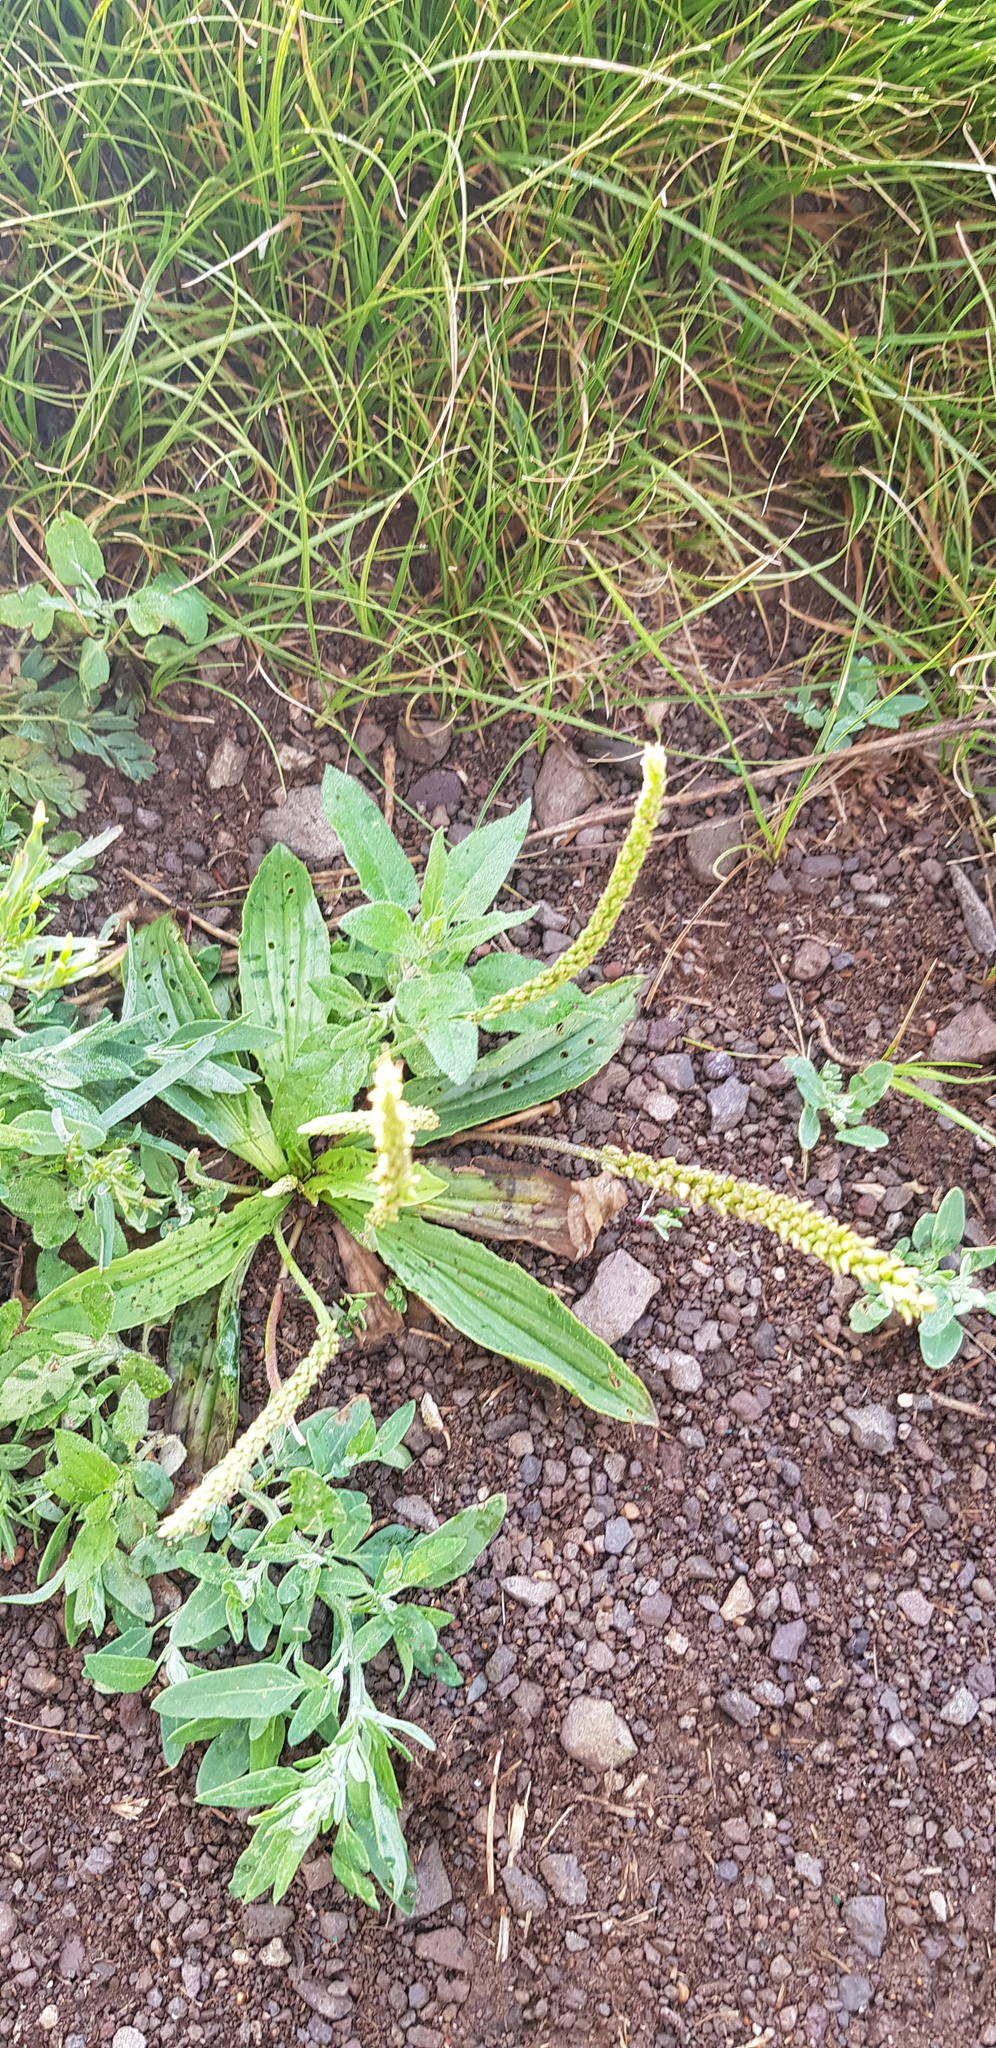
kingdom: Plantae
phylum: Tracheophyta
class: Magnoliopsida
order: Lamiales
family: Plantaginaceae
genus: Plantago
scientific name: Plantago depressa
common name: Depressed plantain
